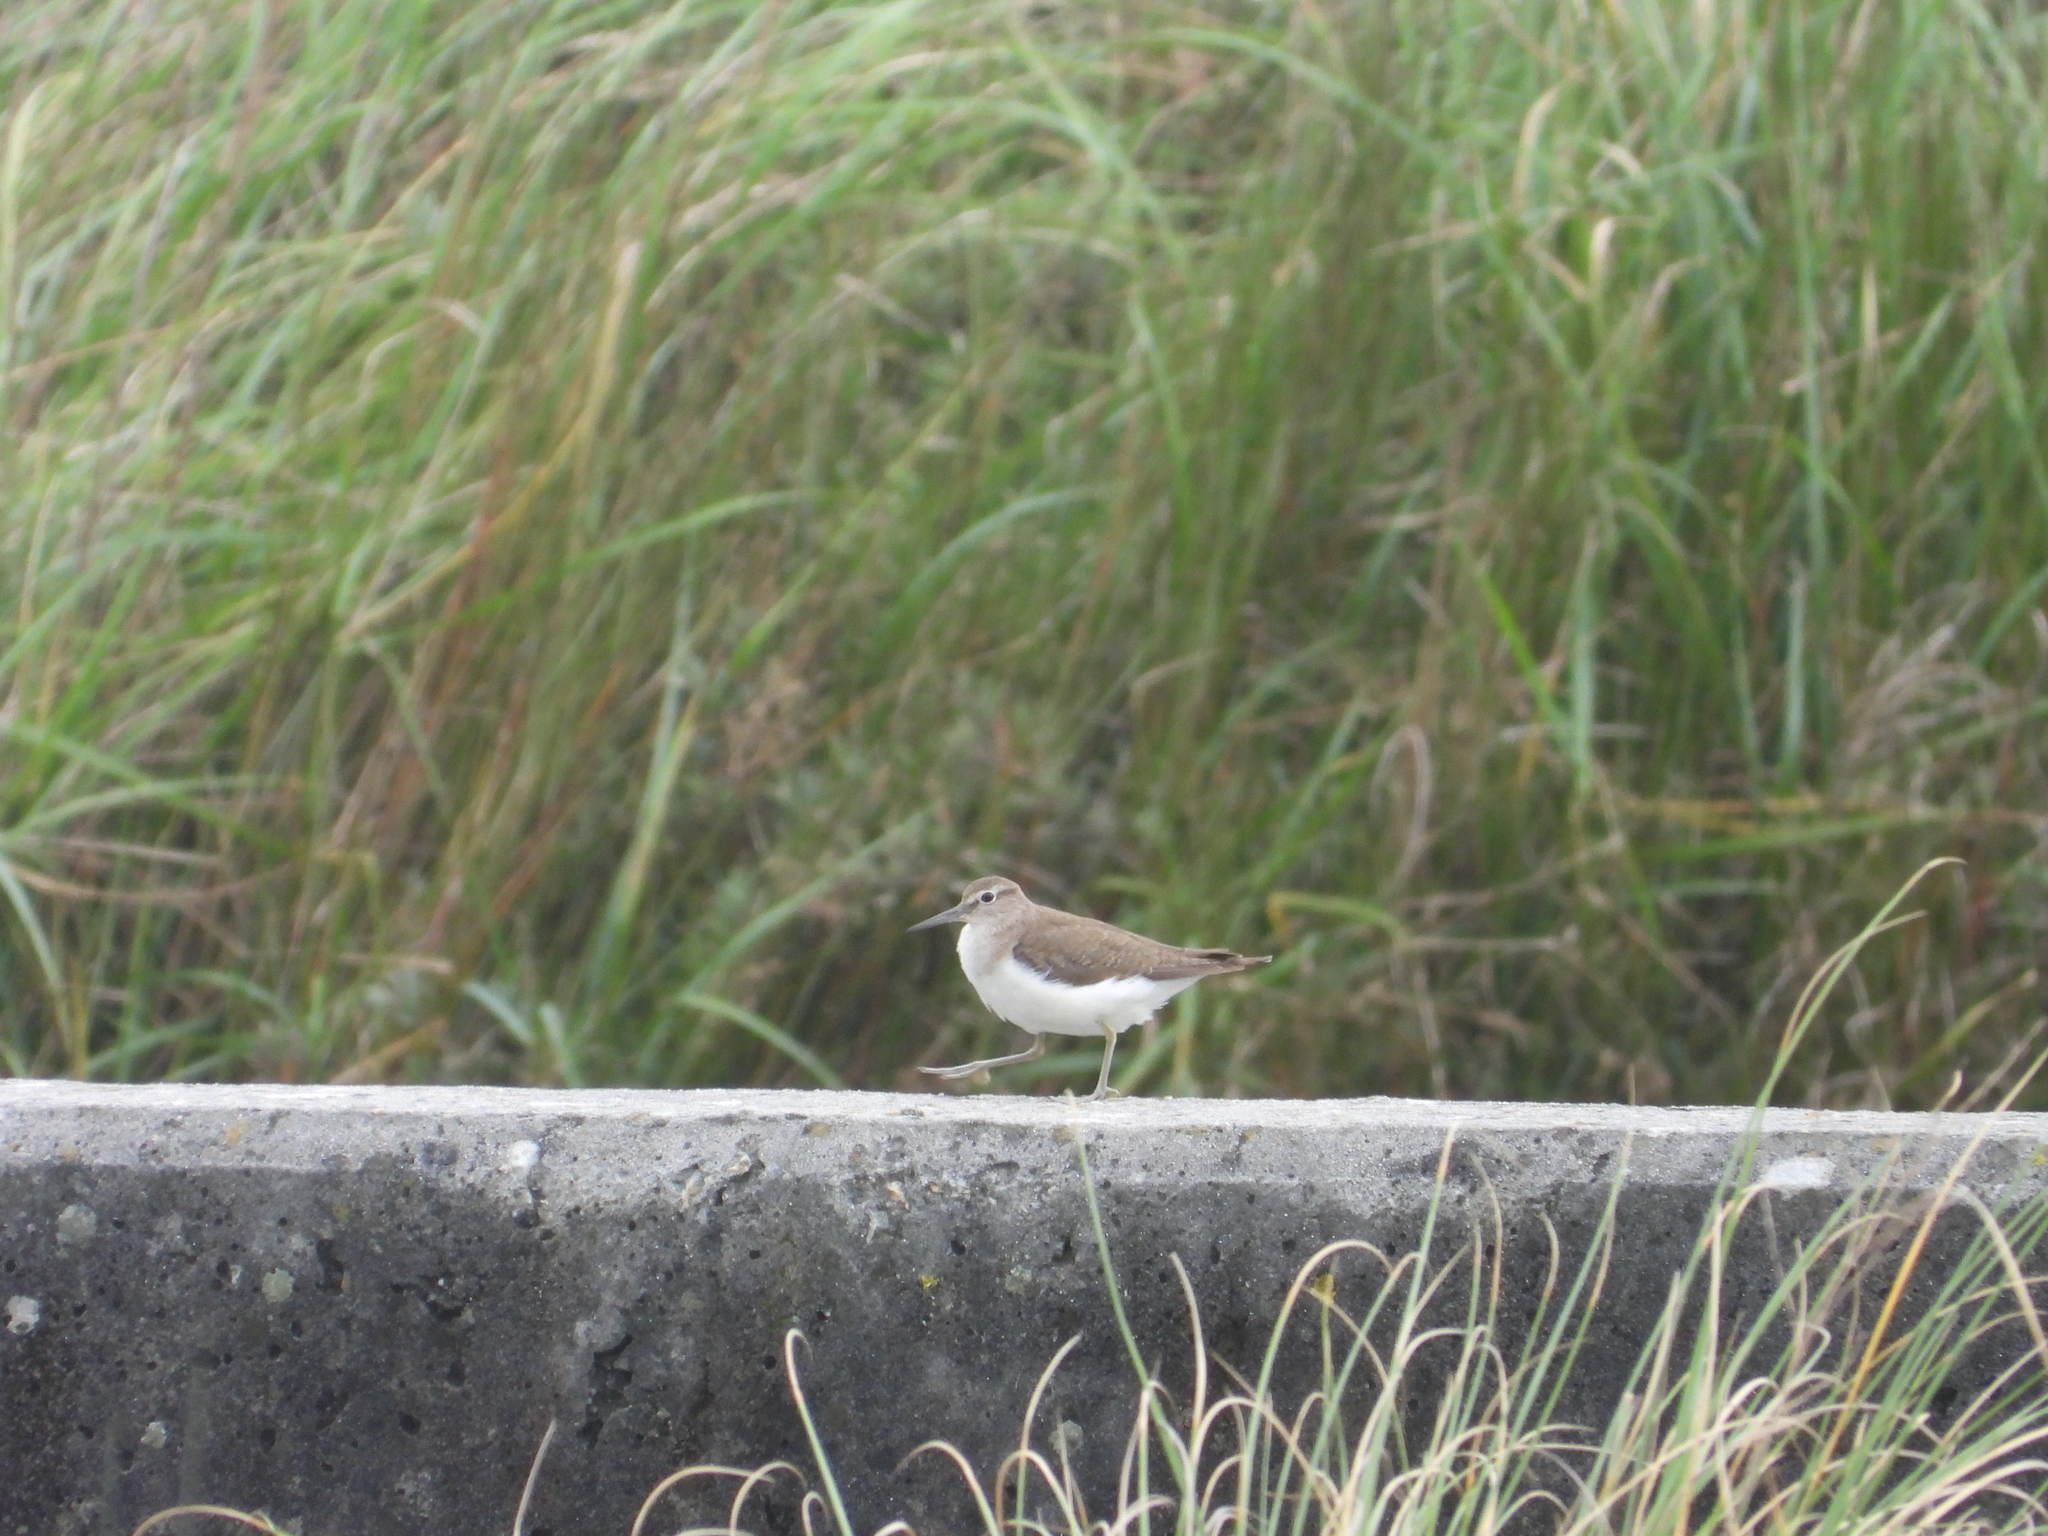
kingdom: Animalia
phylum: Chordata
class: Aves
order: Charadriiformes
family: Scolopacidae
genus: Actitis
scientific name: Actitis hypoleucos
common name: Common sandpiper
